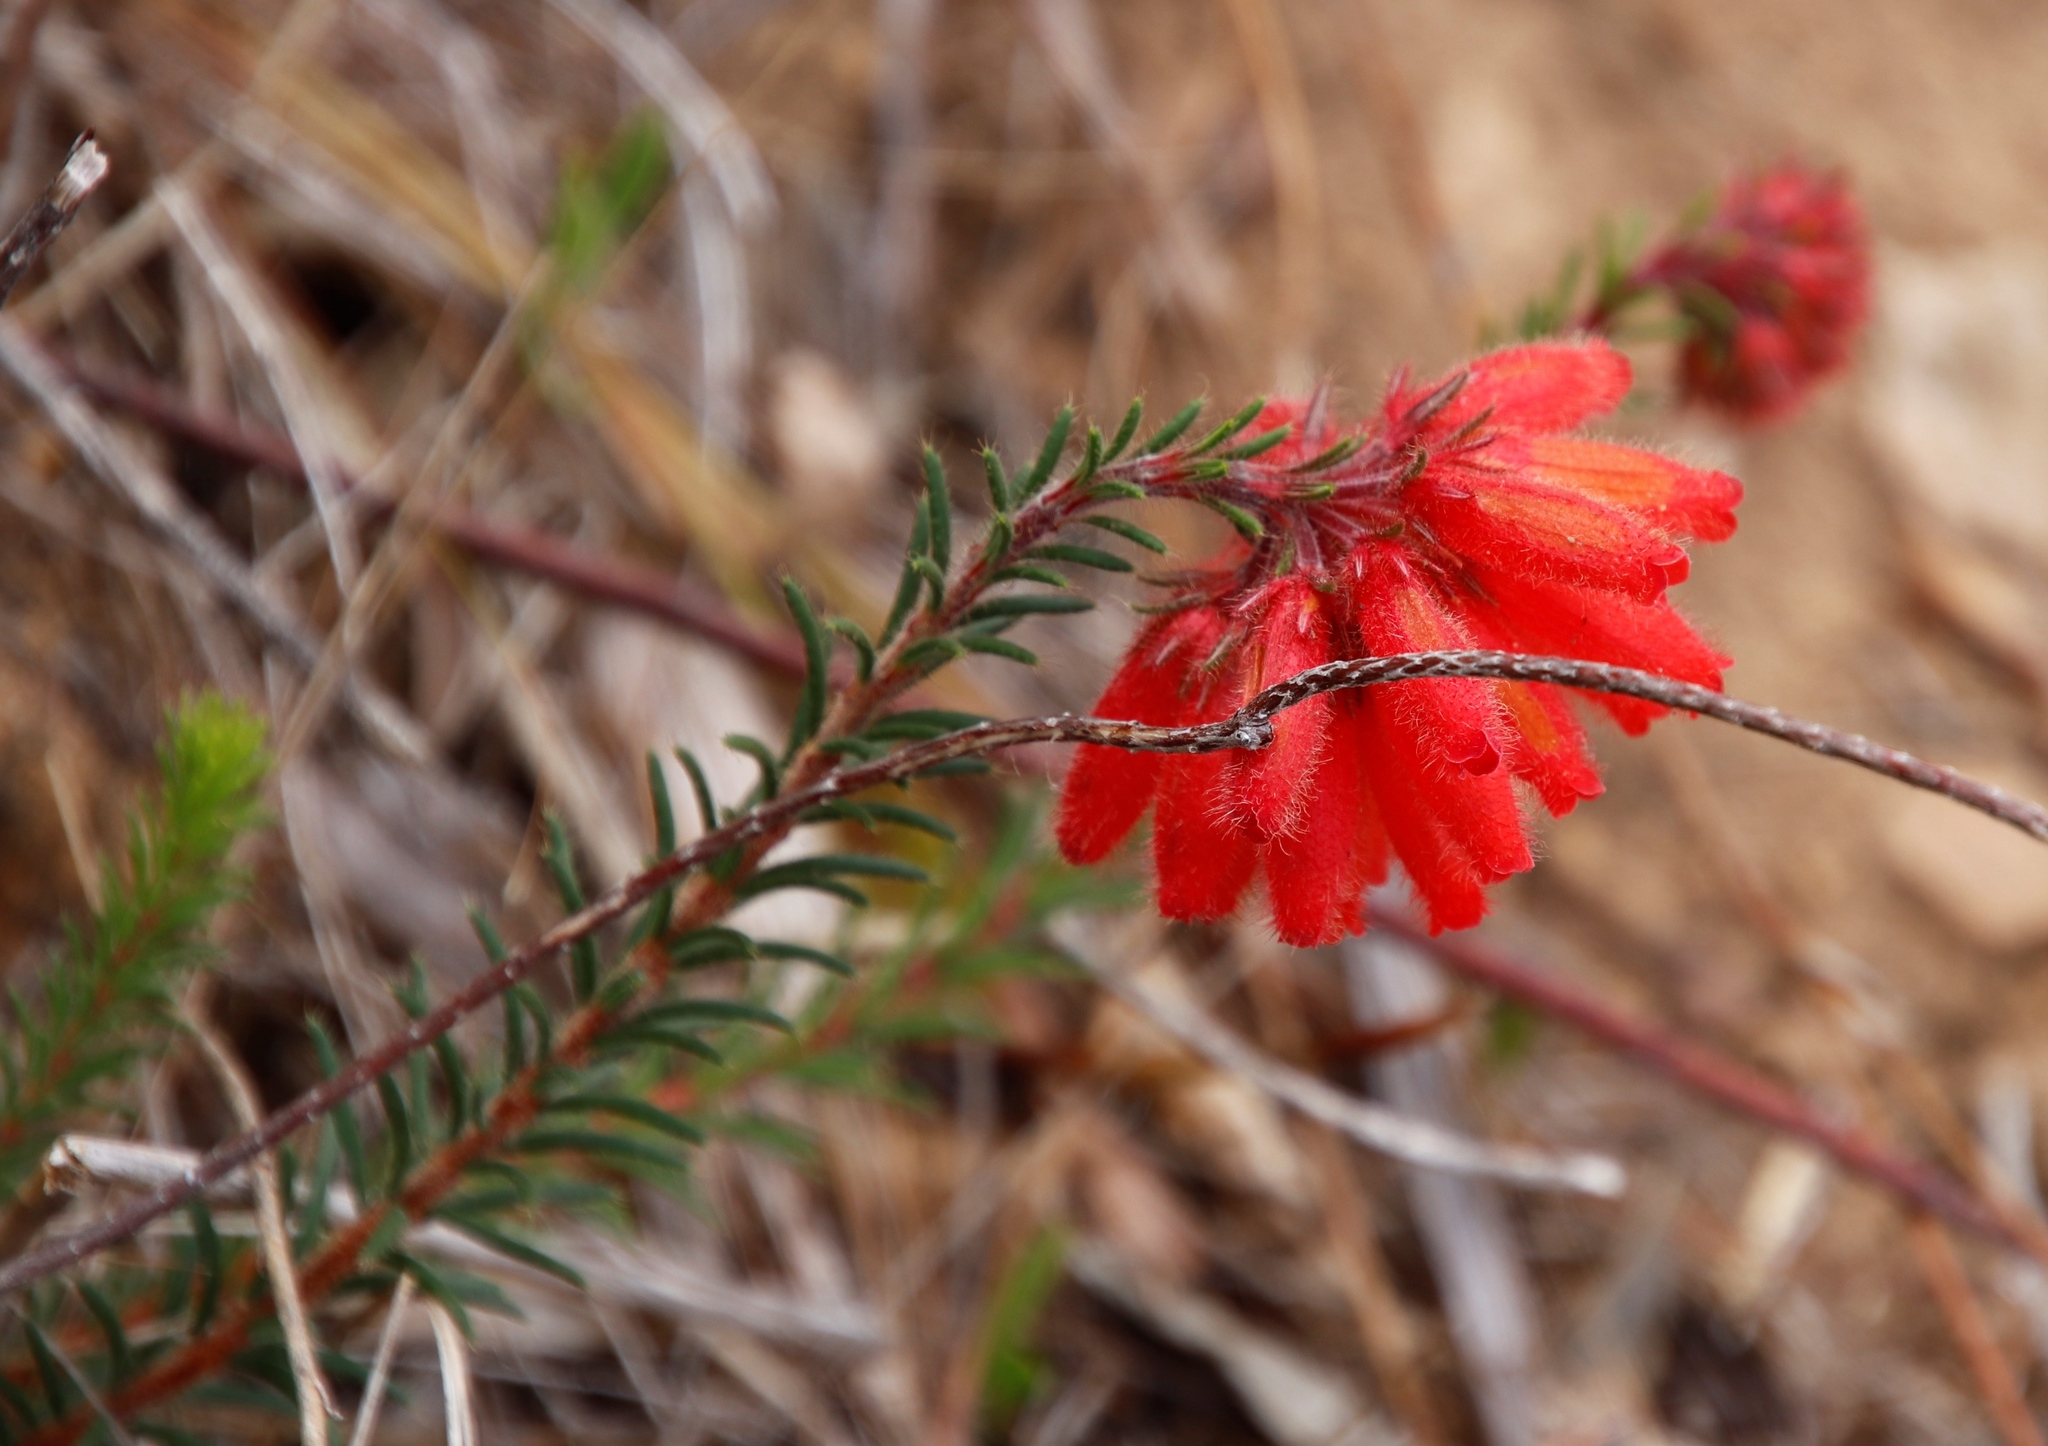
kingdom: Plantae
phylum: Tracheophyta
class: Magnoliopsida
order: Ericales
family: Ericaceae
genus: Erica
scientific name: Erica cerinthoides
